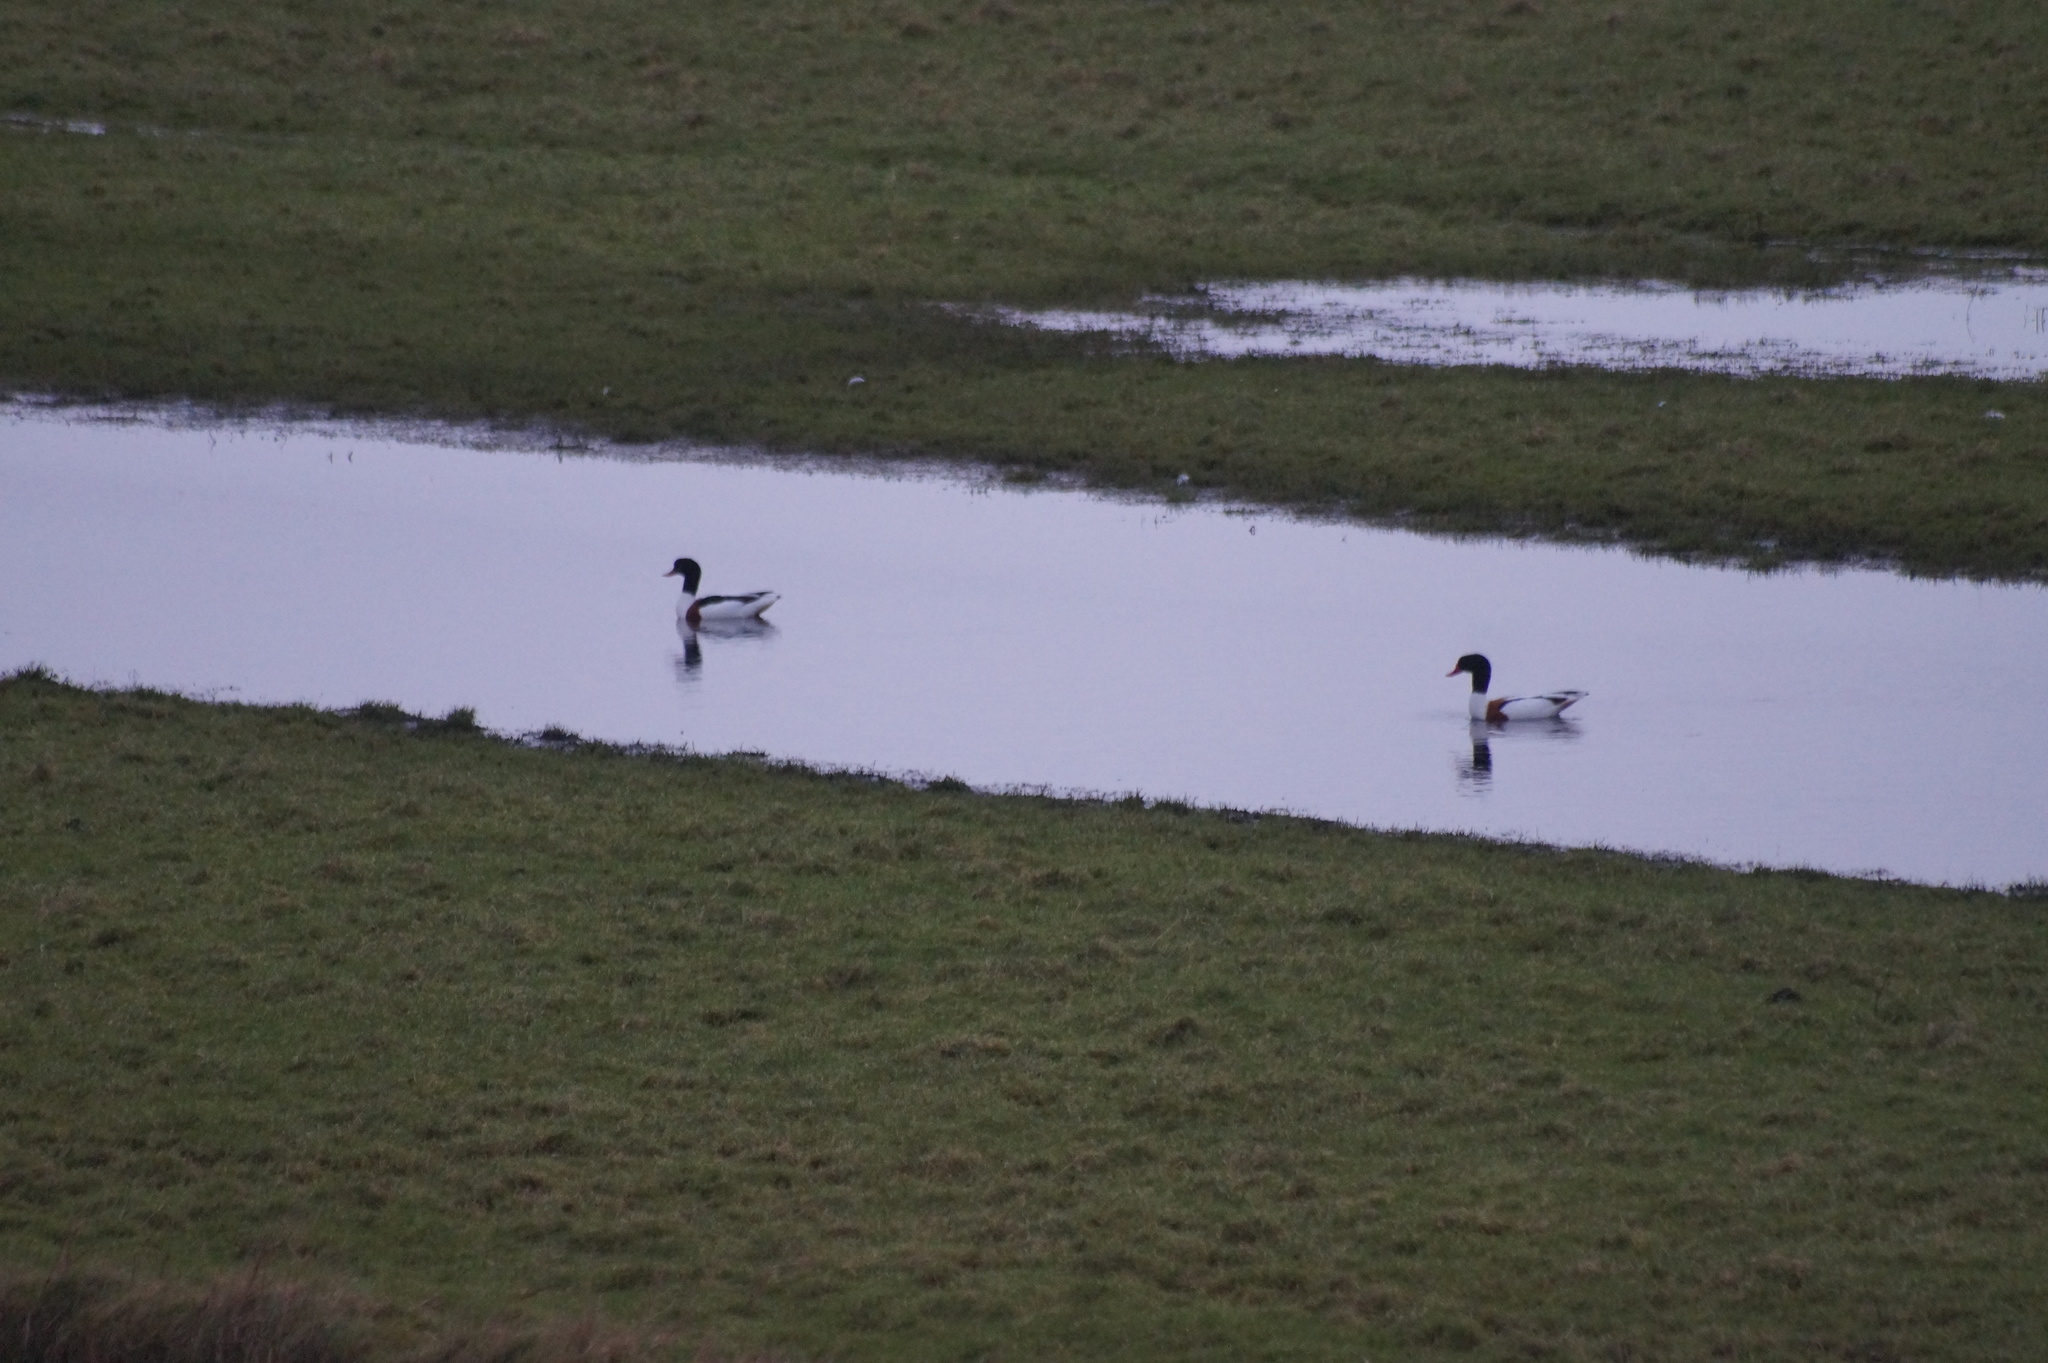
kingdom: Animalia
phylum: Chordata
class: Aves
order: Anseriformes
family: Anatidae
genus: Tadorna
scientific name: Tadorna tadorna
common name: Common shelduck
